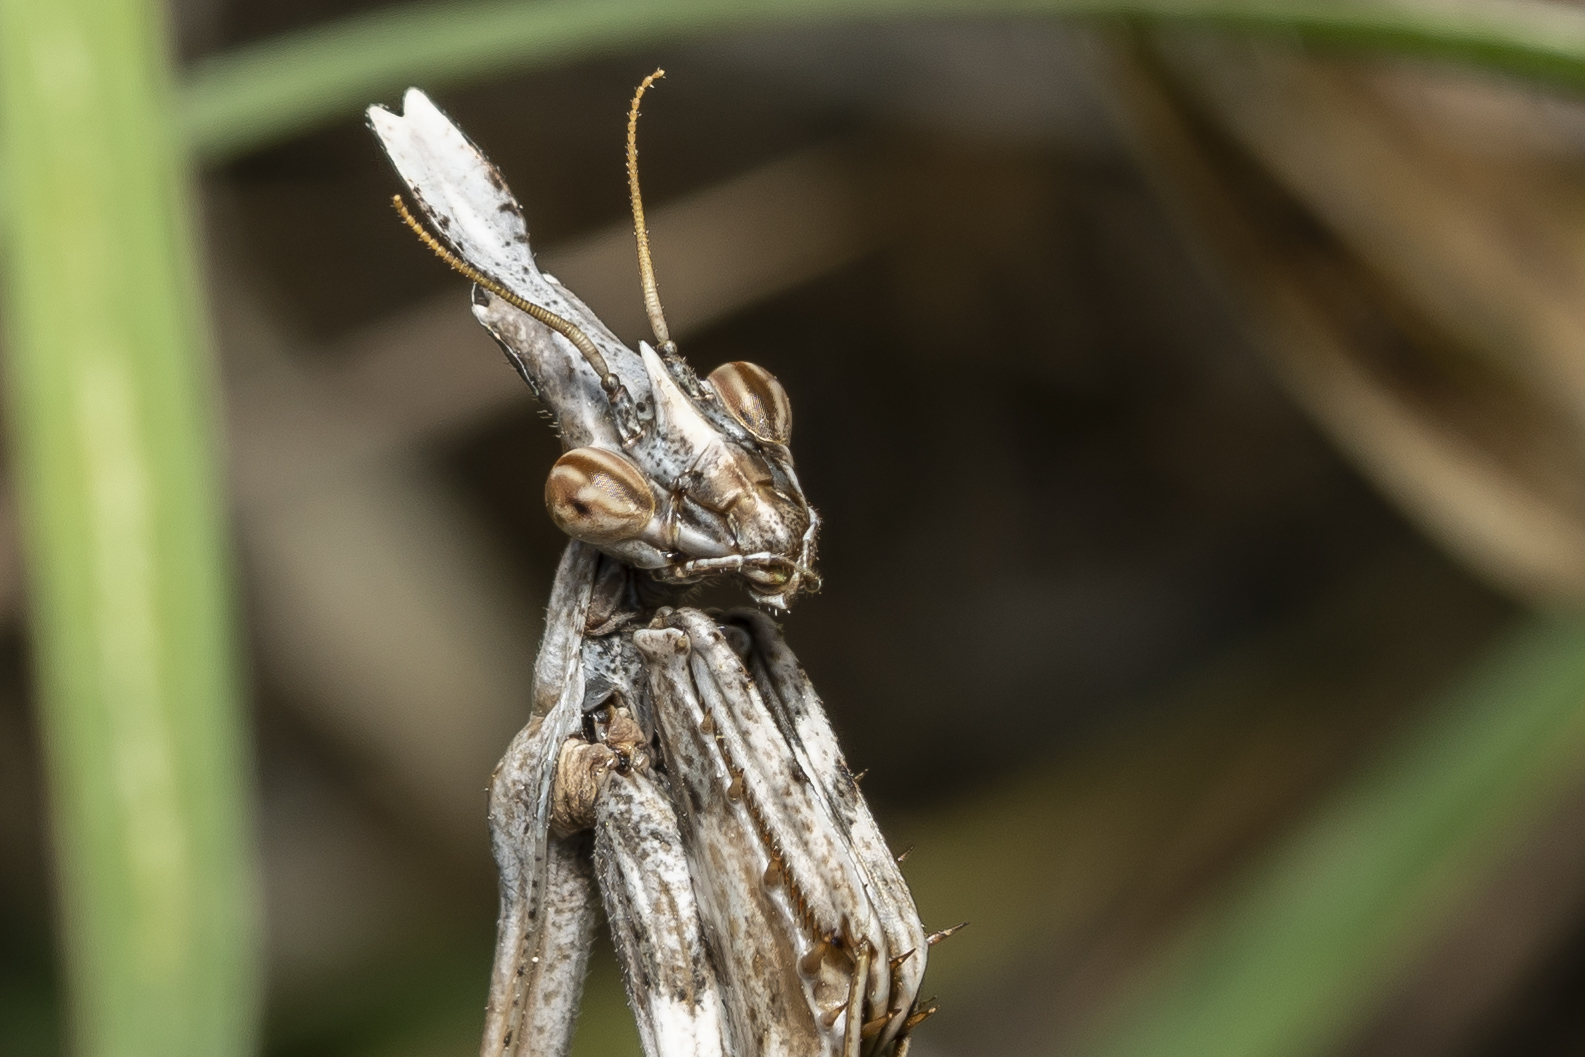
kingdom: Animalia
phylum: Arthropoda
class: Insecta
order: Mantodea
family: Empusidae
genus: Empusa
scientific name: Empusa fasciata
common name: Devil's mare
